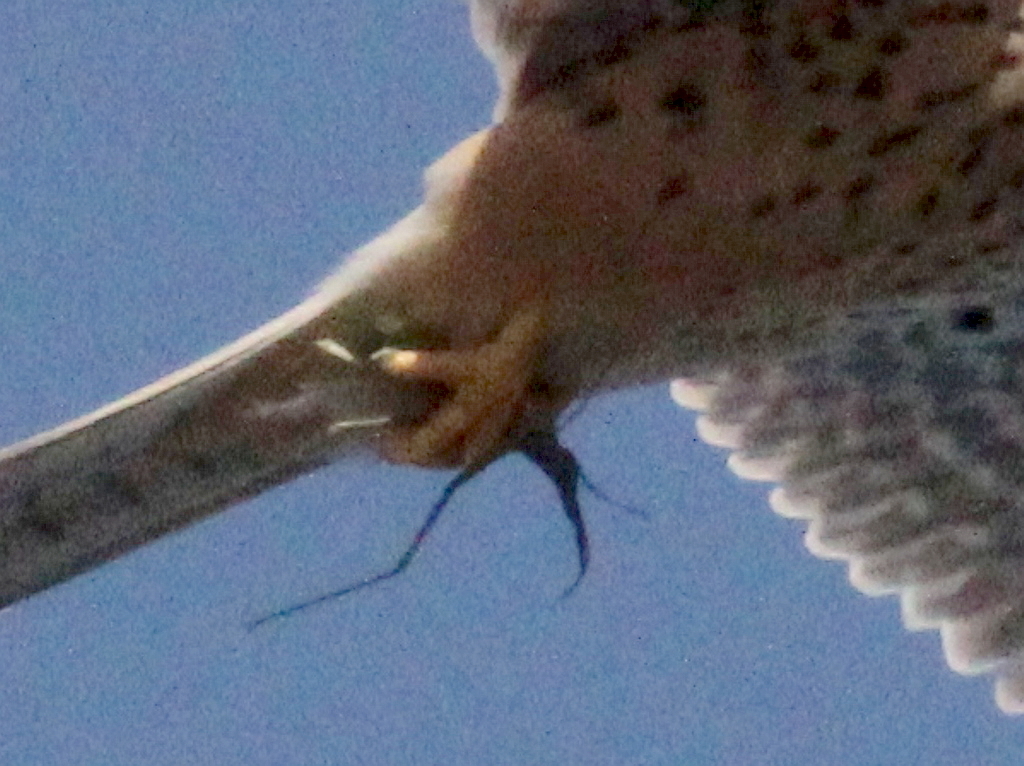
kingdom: Animalia
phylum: Chordata
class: Aves
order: Falconiformes
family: Falconidae
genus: Falco
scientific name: Falco tinnunculus
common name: Common kestrel
